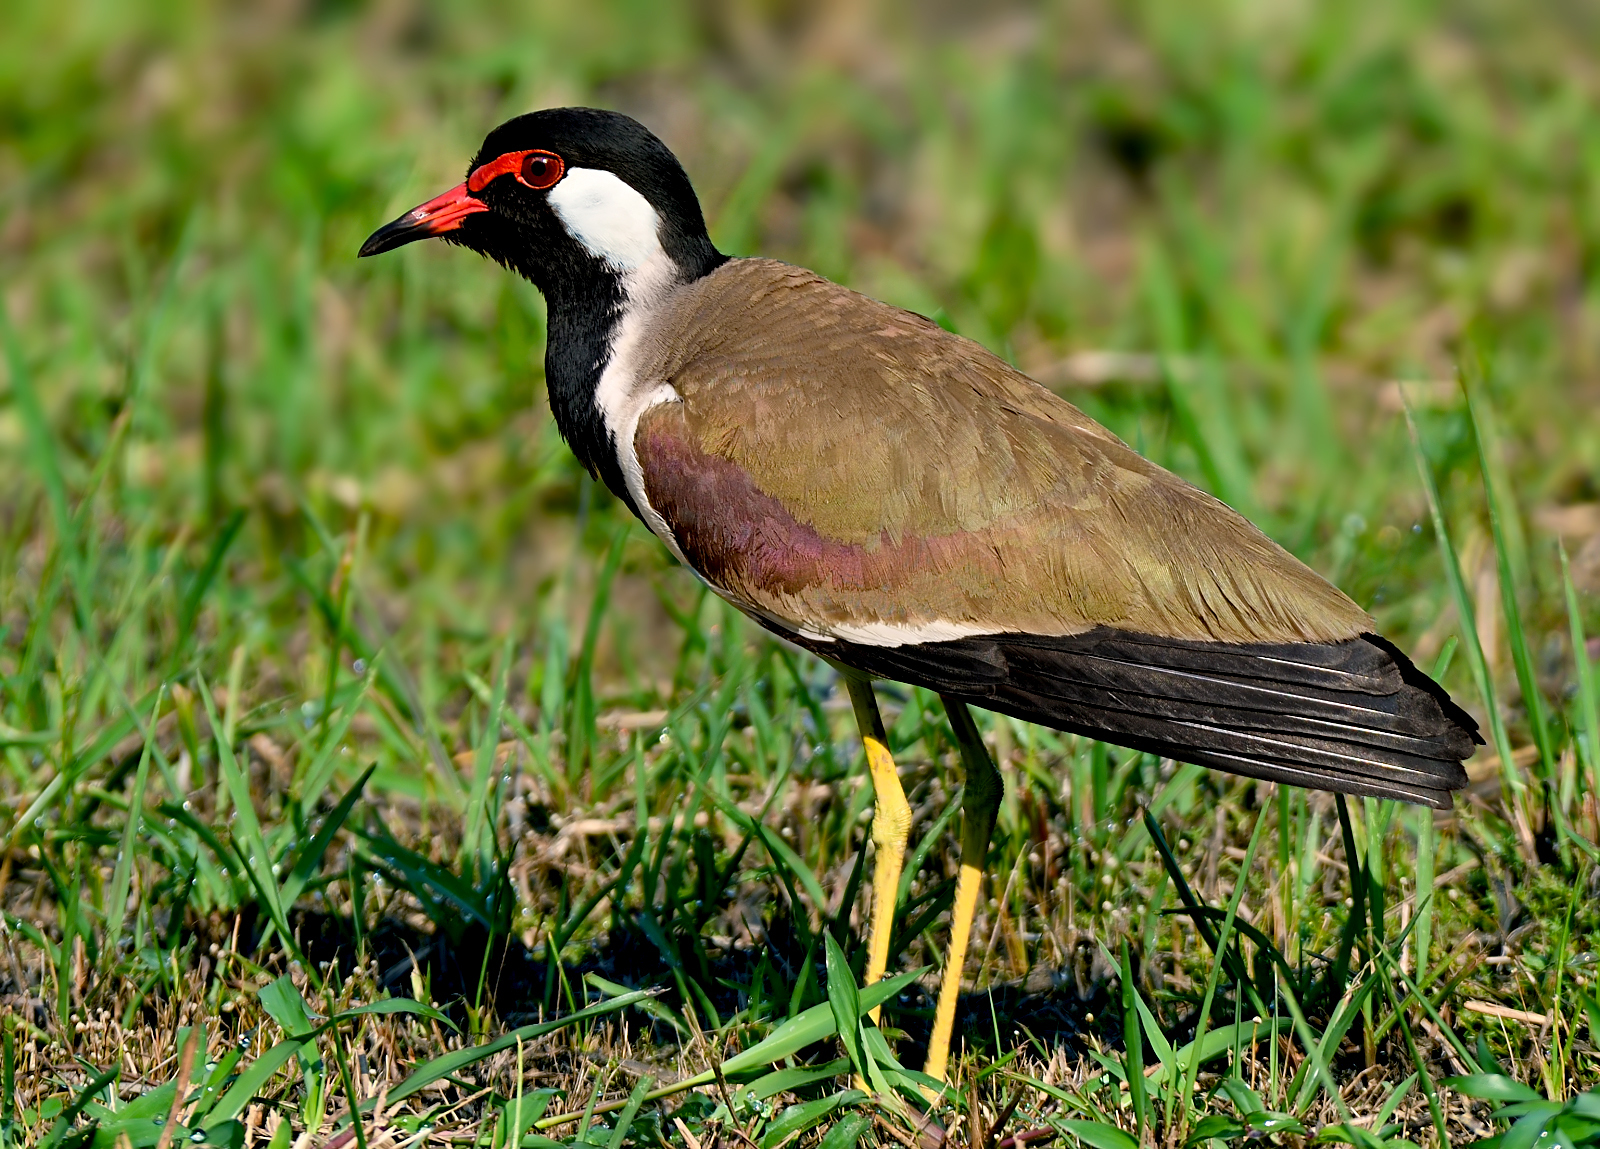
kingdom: Animalia
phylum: Chordata
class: Aves
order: Charadriiformes
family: Charadriidae
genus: Vanellus
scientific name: Vanellus indicus
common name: Red-wattled lapwing
